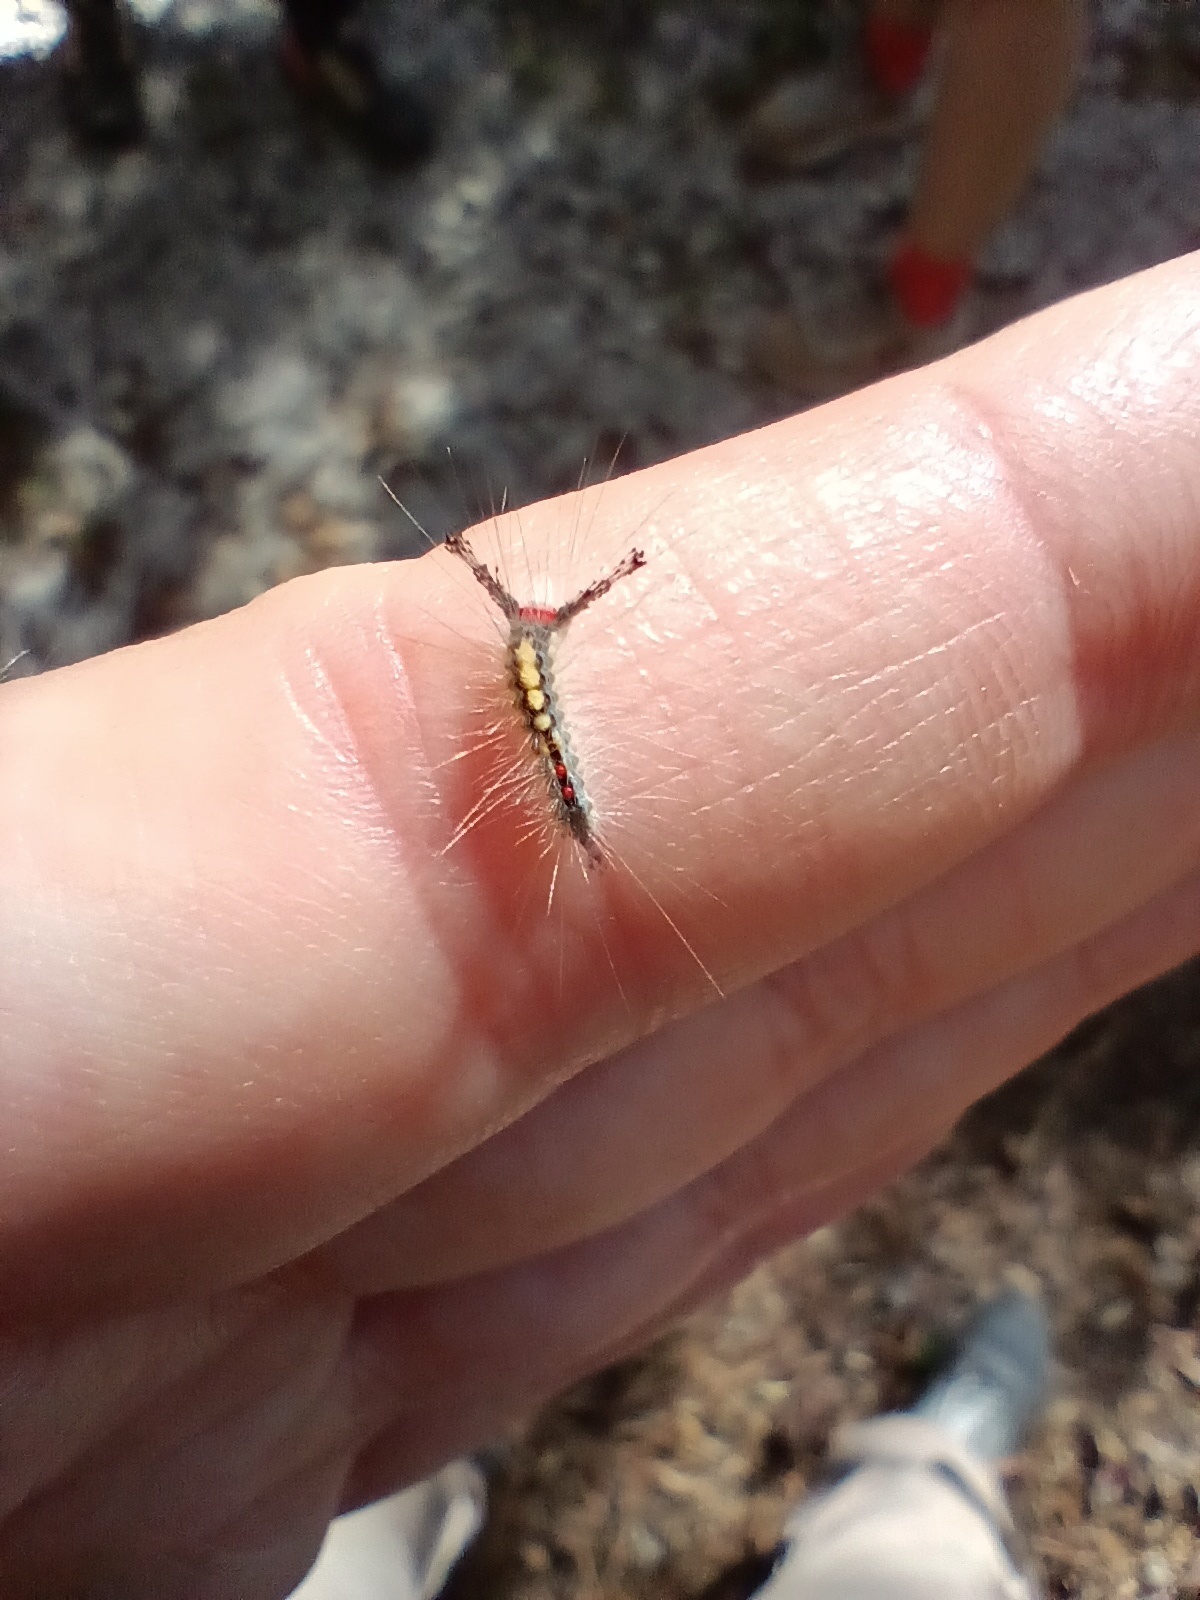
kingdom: Animalia
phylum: Arthropoda
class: Insecta
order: Lepidoptera
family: Erebidae
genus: Orgyia
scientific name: Orgyia detrita
